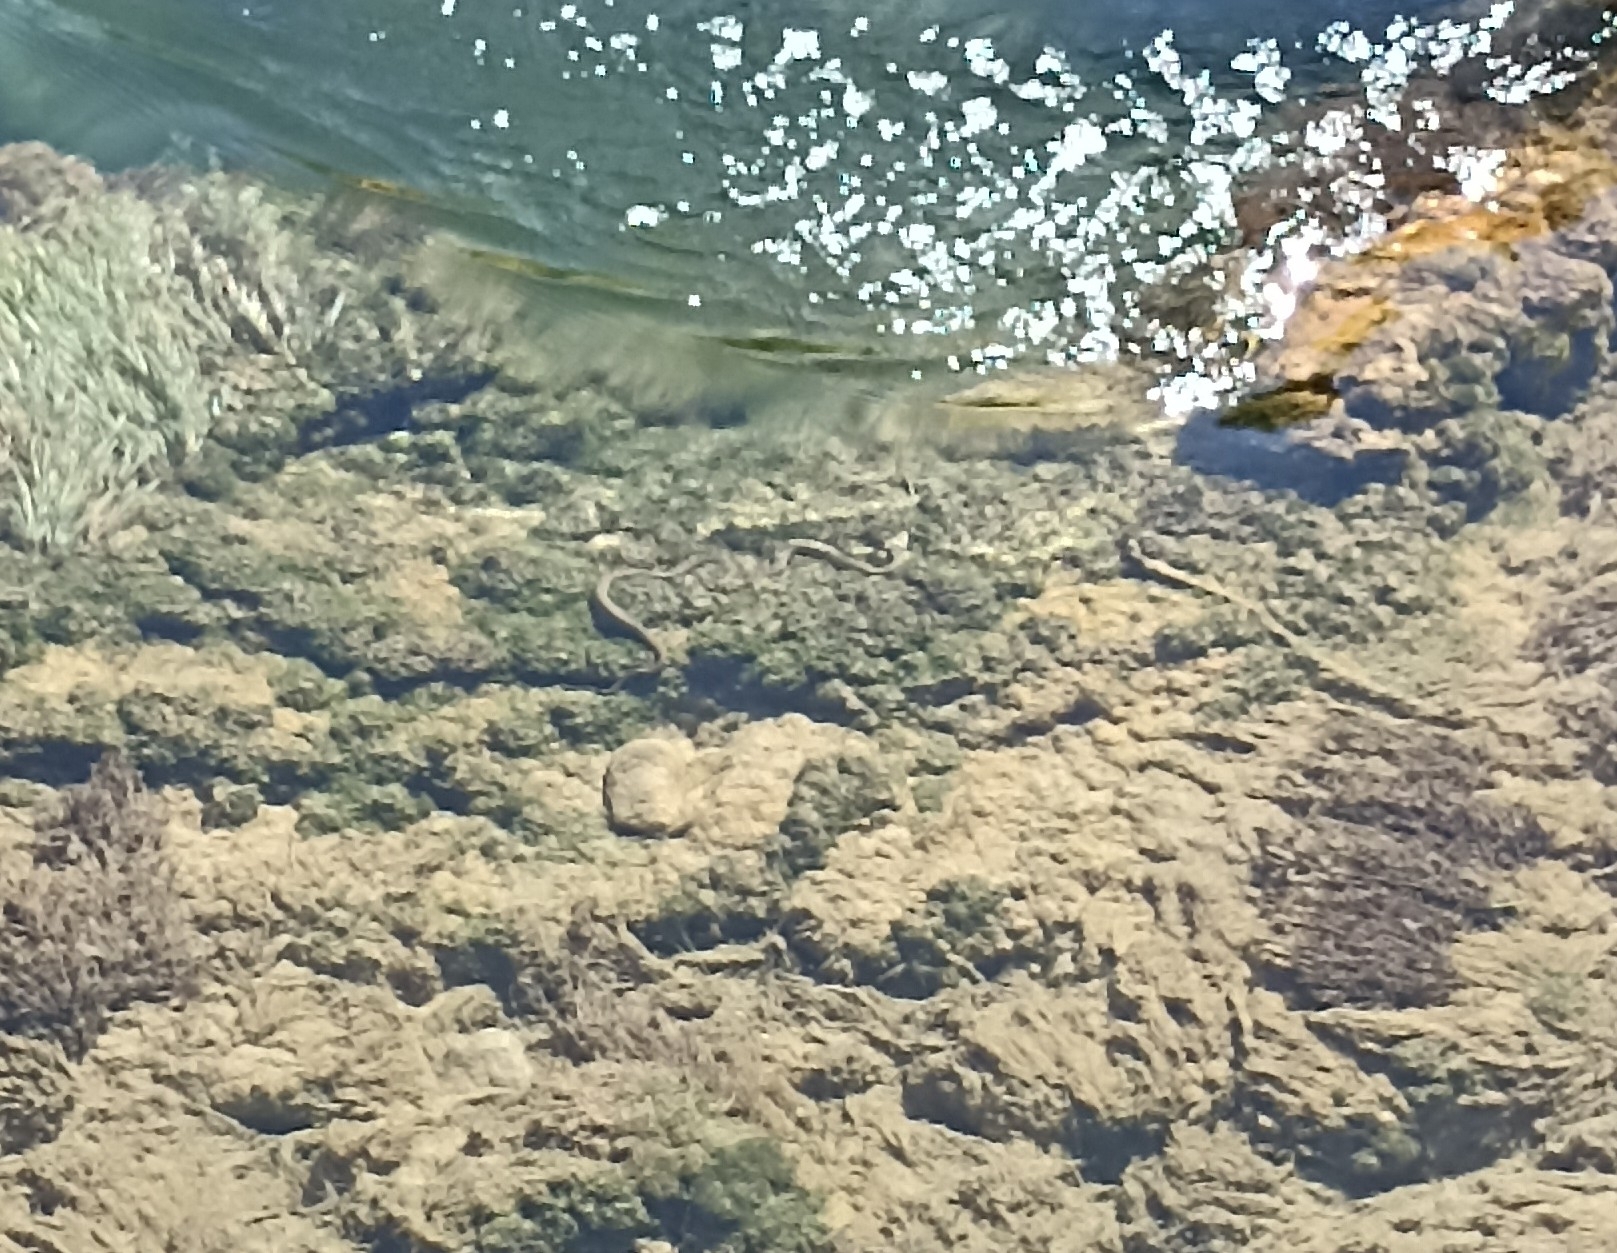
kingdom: Animalia
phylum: Chordata
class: Squamata
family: Colubridae
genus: Natrix
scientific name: Natrix tessellata
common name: Dice snake
